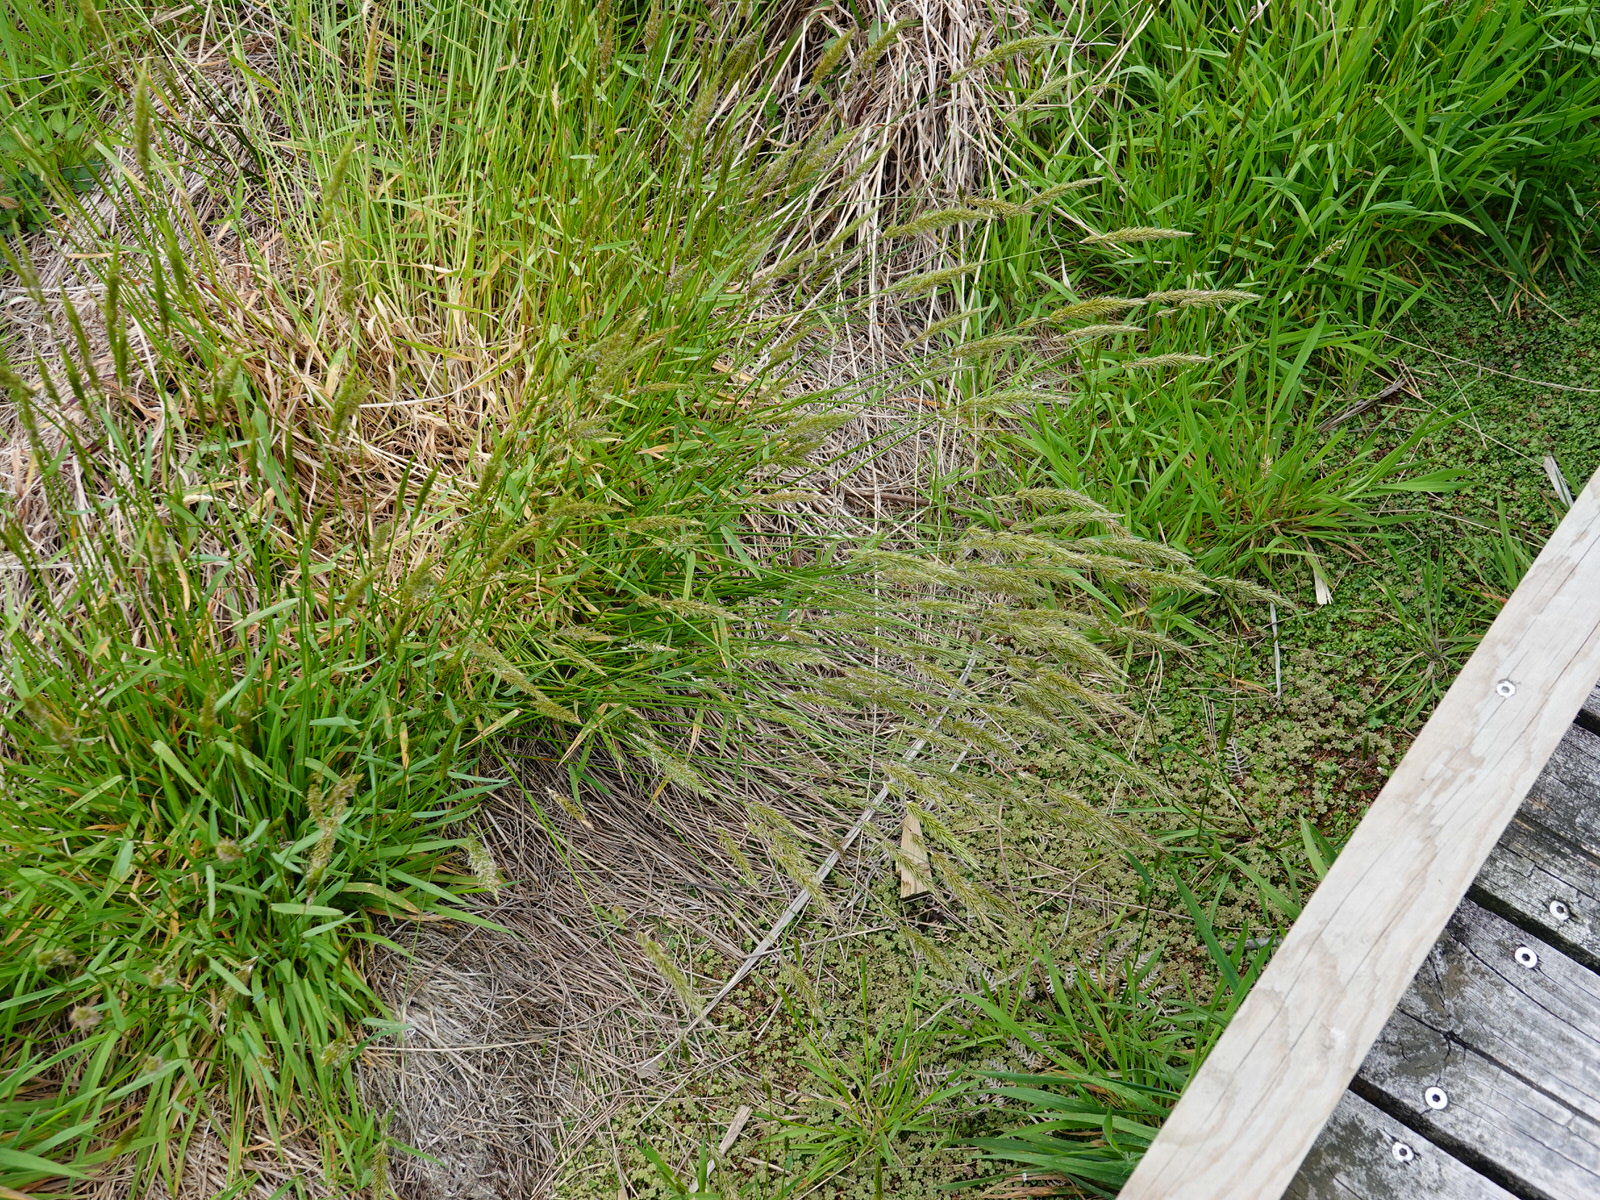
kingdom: Plantae
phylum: Tracheophyta
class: Liliopsida
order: Poales
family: Poaceae
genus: Anthoxanthum
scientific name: Anthoxanthum odoratum
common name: Sweet vernalgrass
